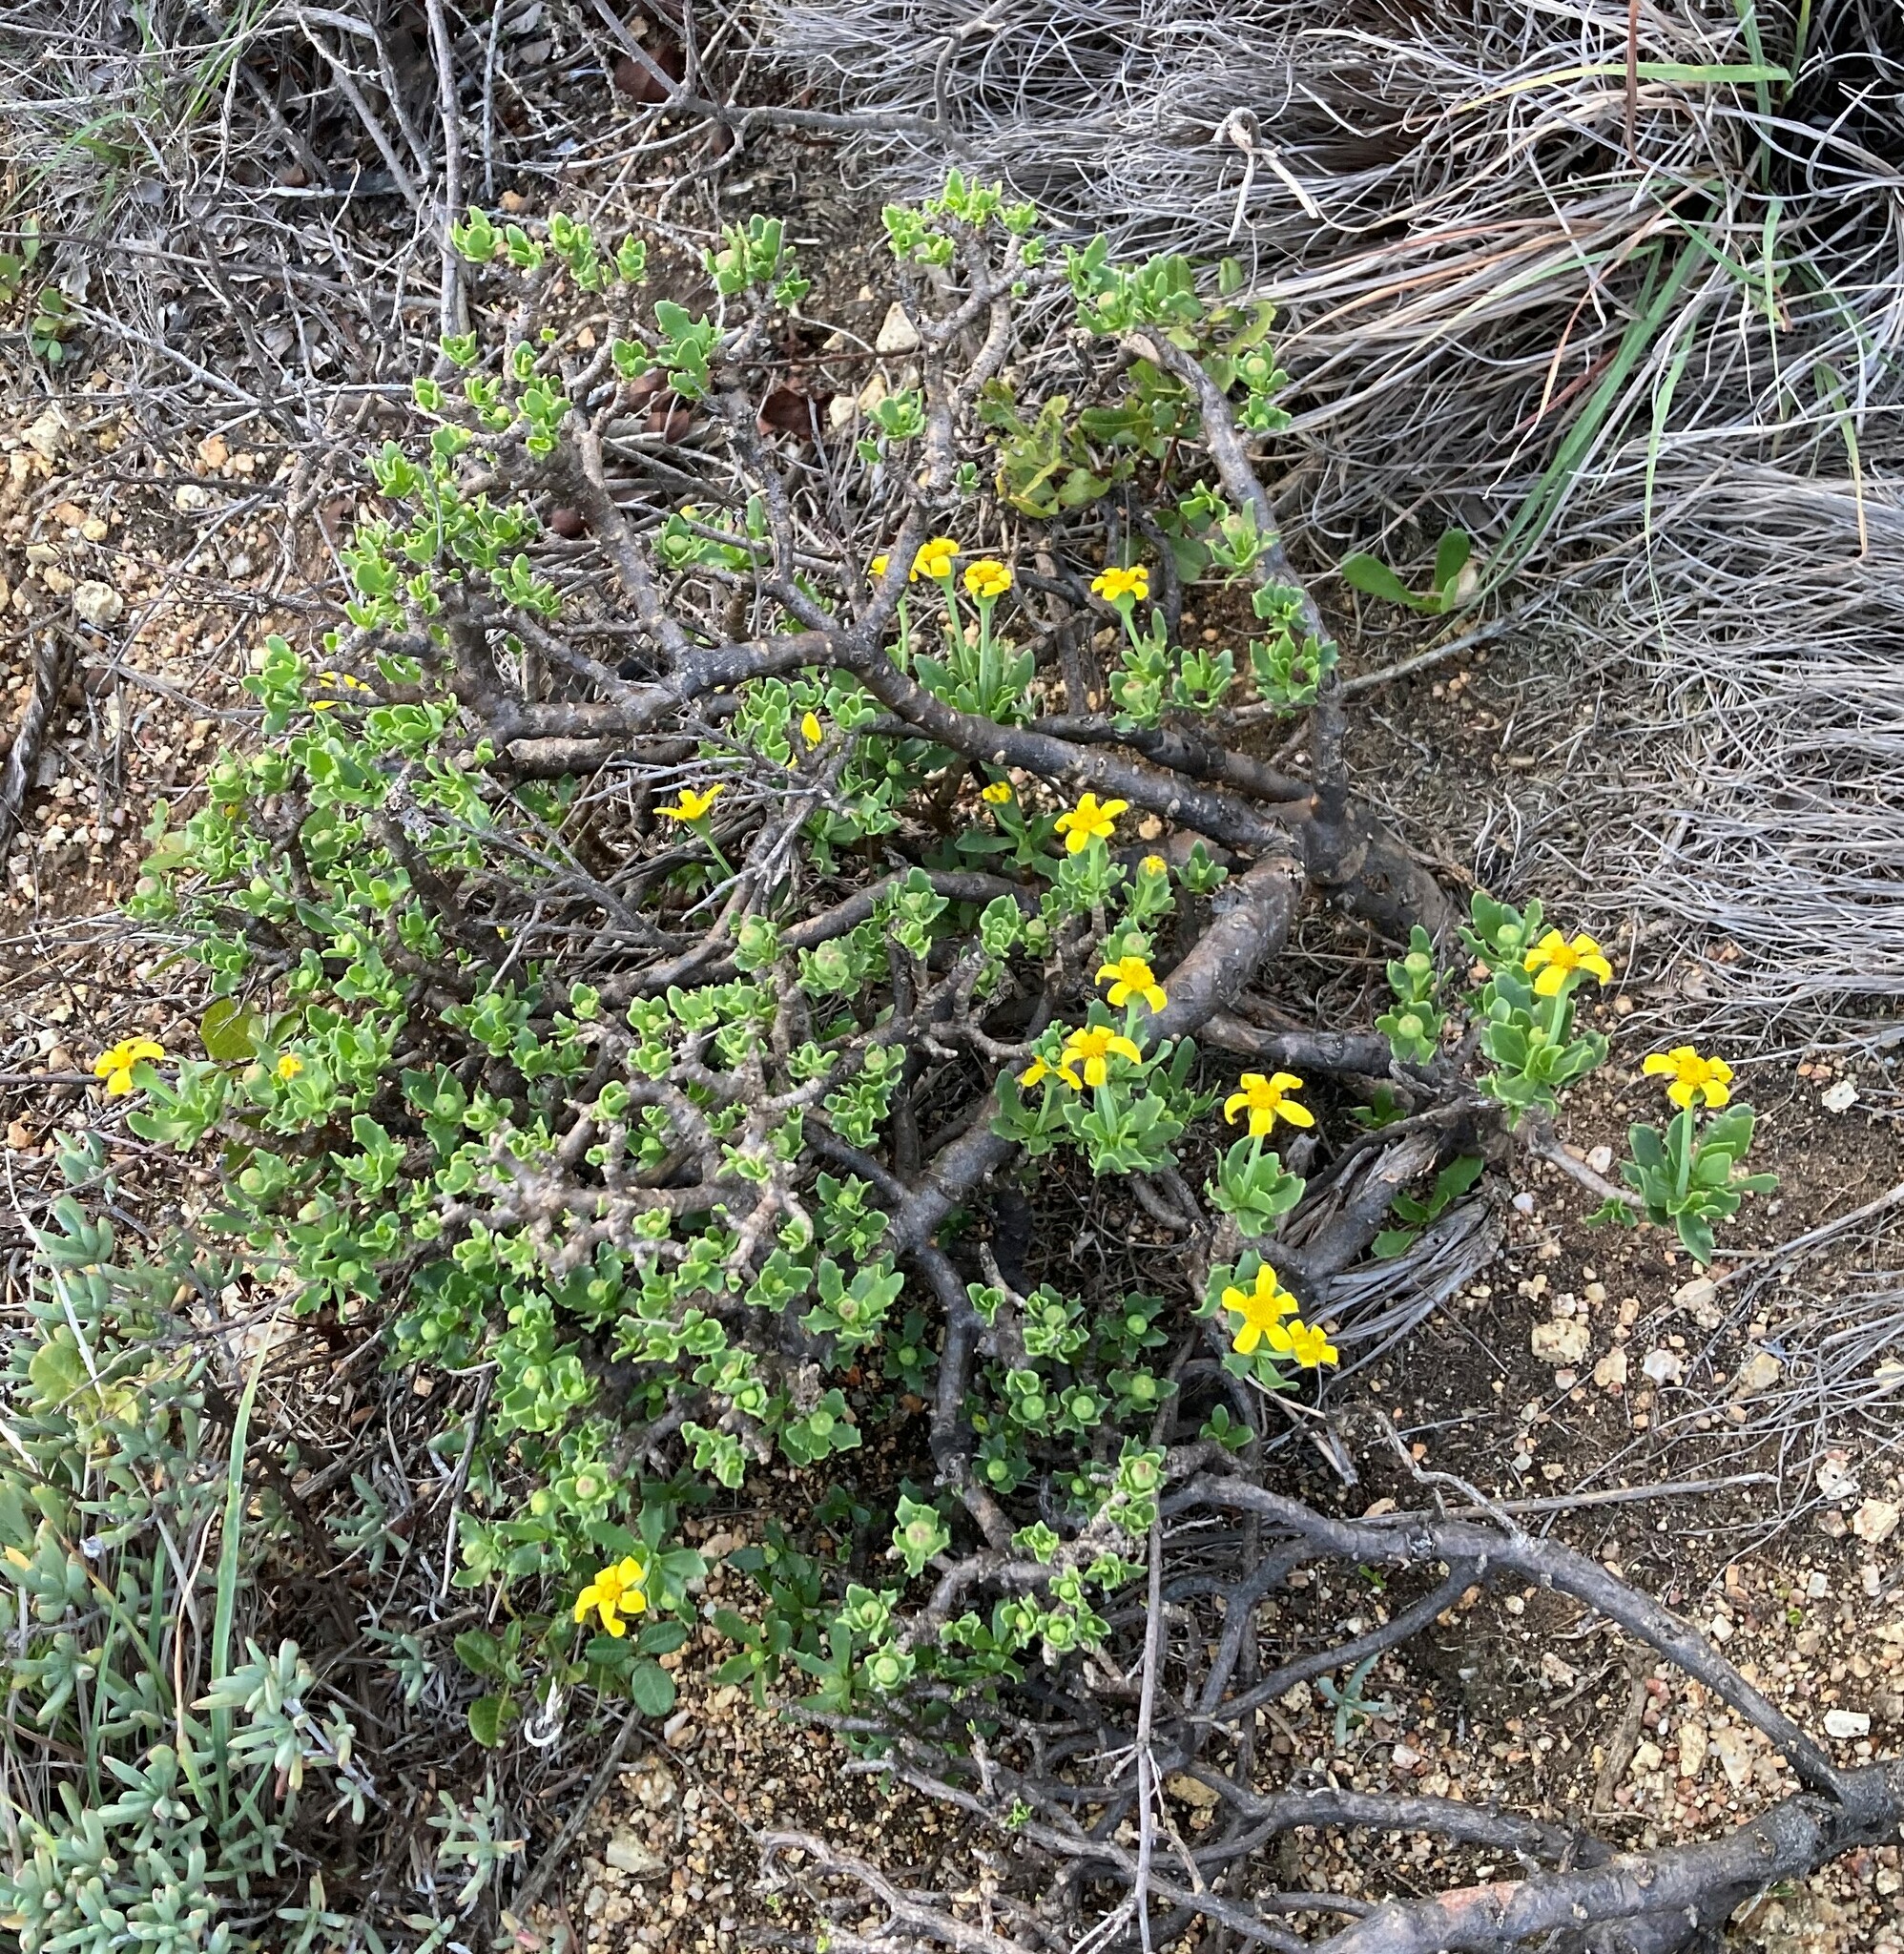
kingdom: Plantae
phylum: Tracheophyta
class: Magnoliopsida
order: Asterales
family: Asteraceae
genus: Othonna
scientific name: Othonna arborescens
